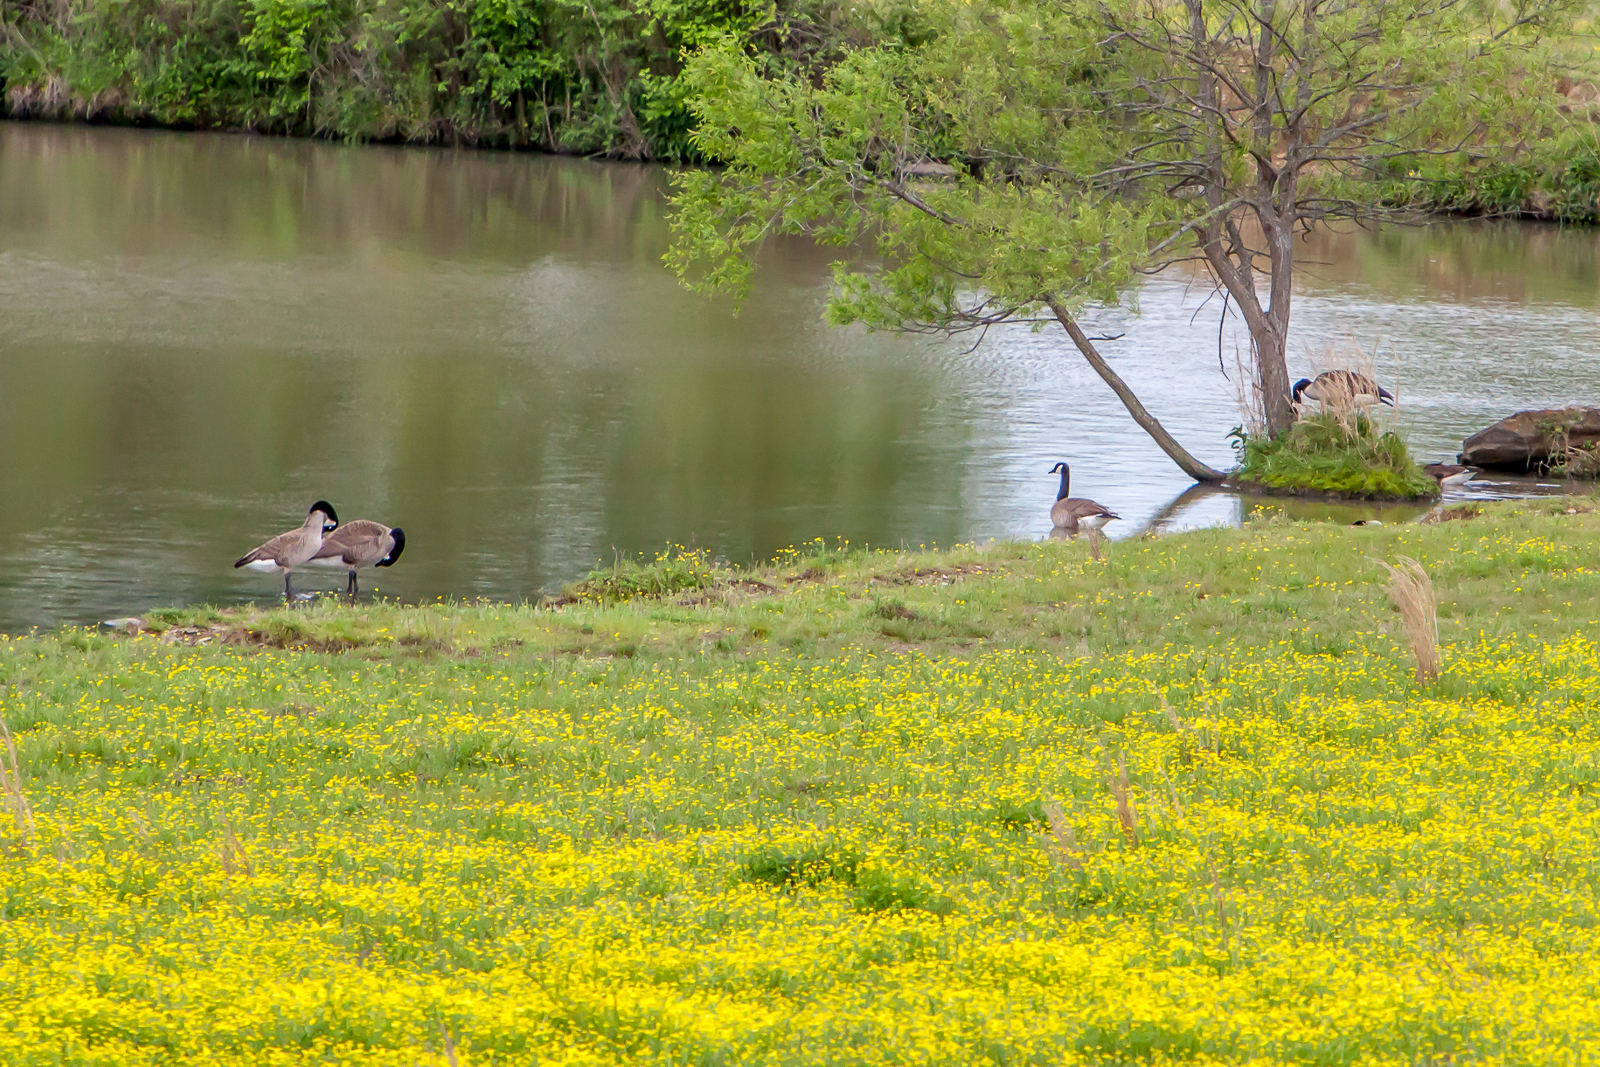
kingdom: Animalia
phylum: Chordata
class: Aves
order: Anseriformes
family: Anatidae
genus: Branta
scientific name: Branta canadensis
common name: Canada goose
